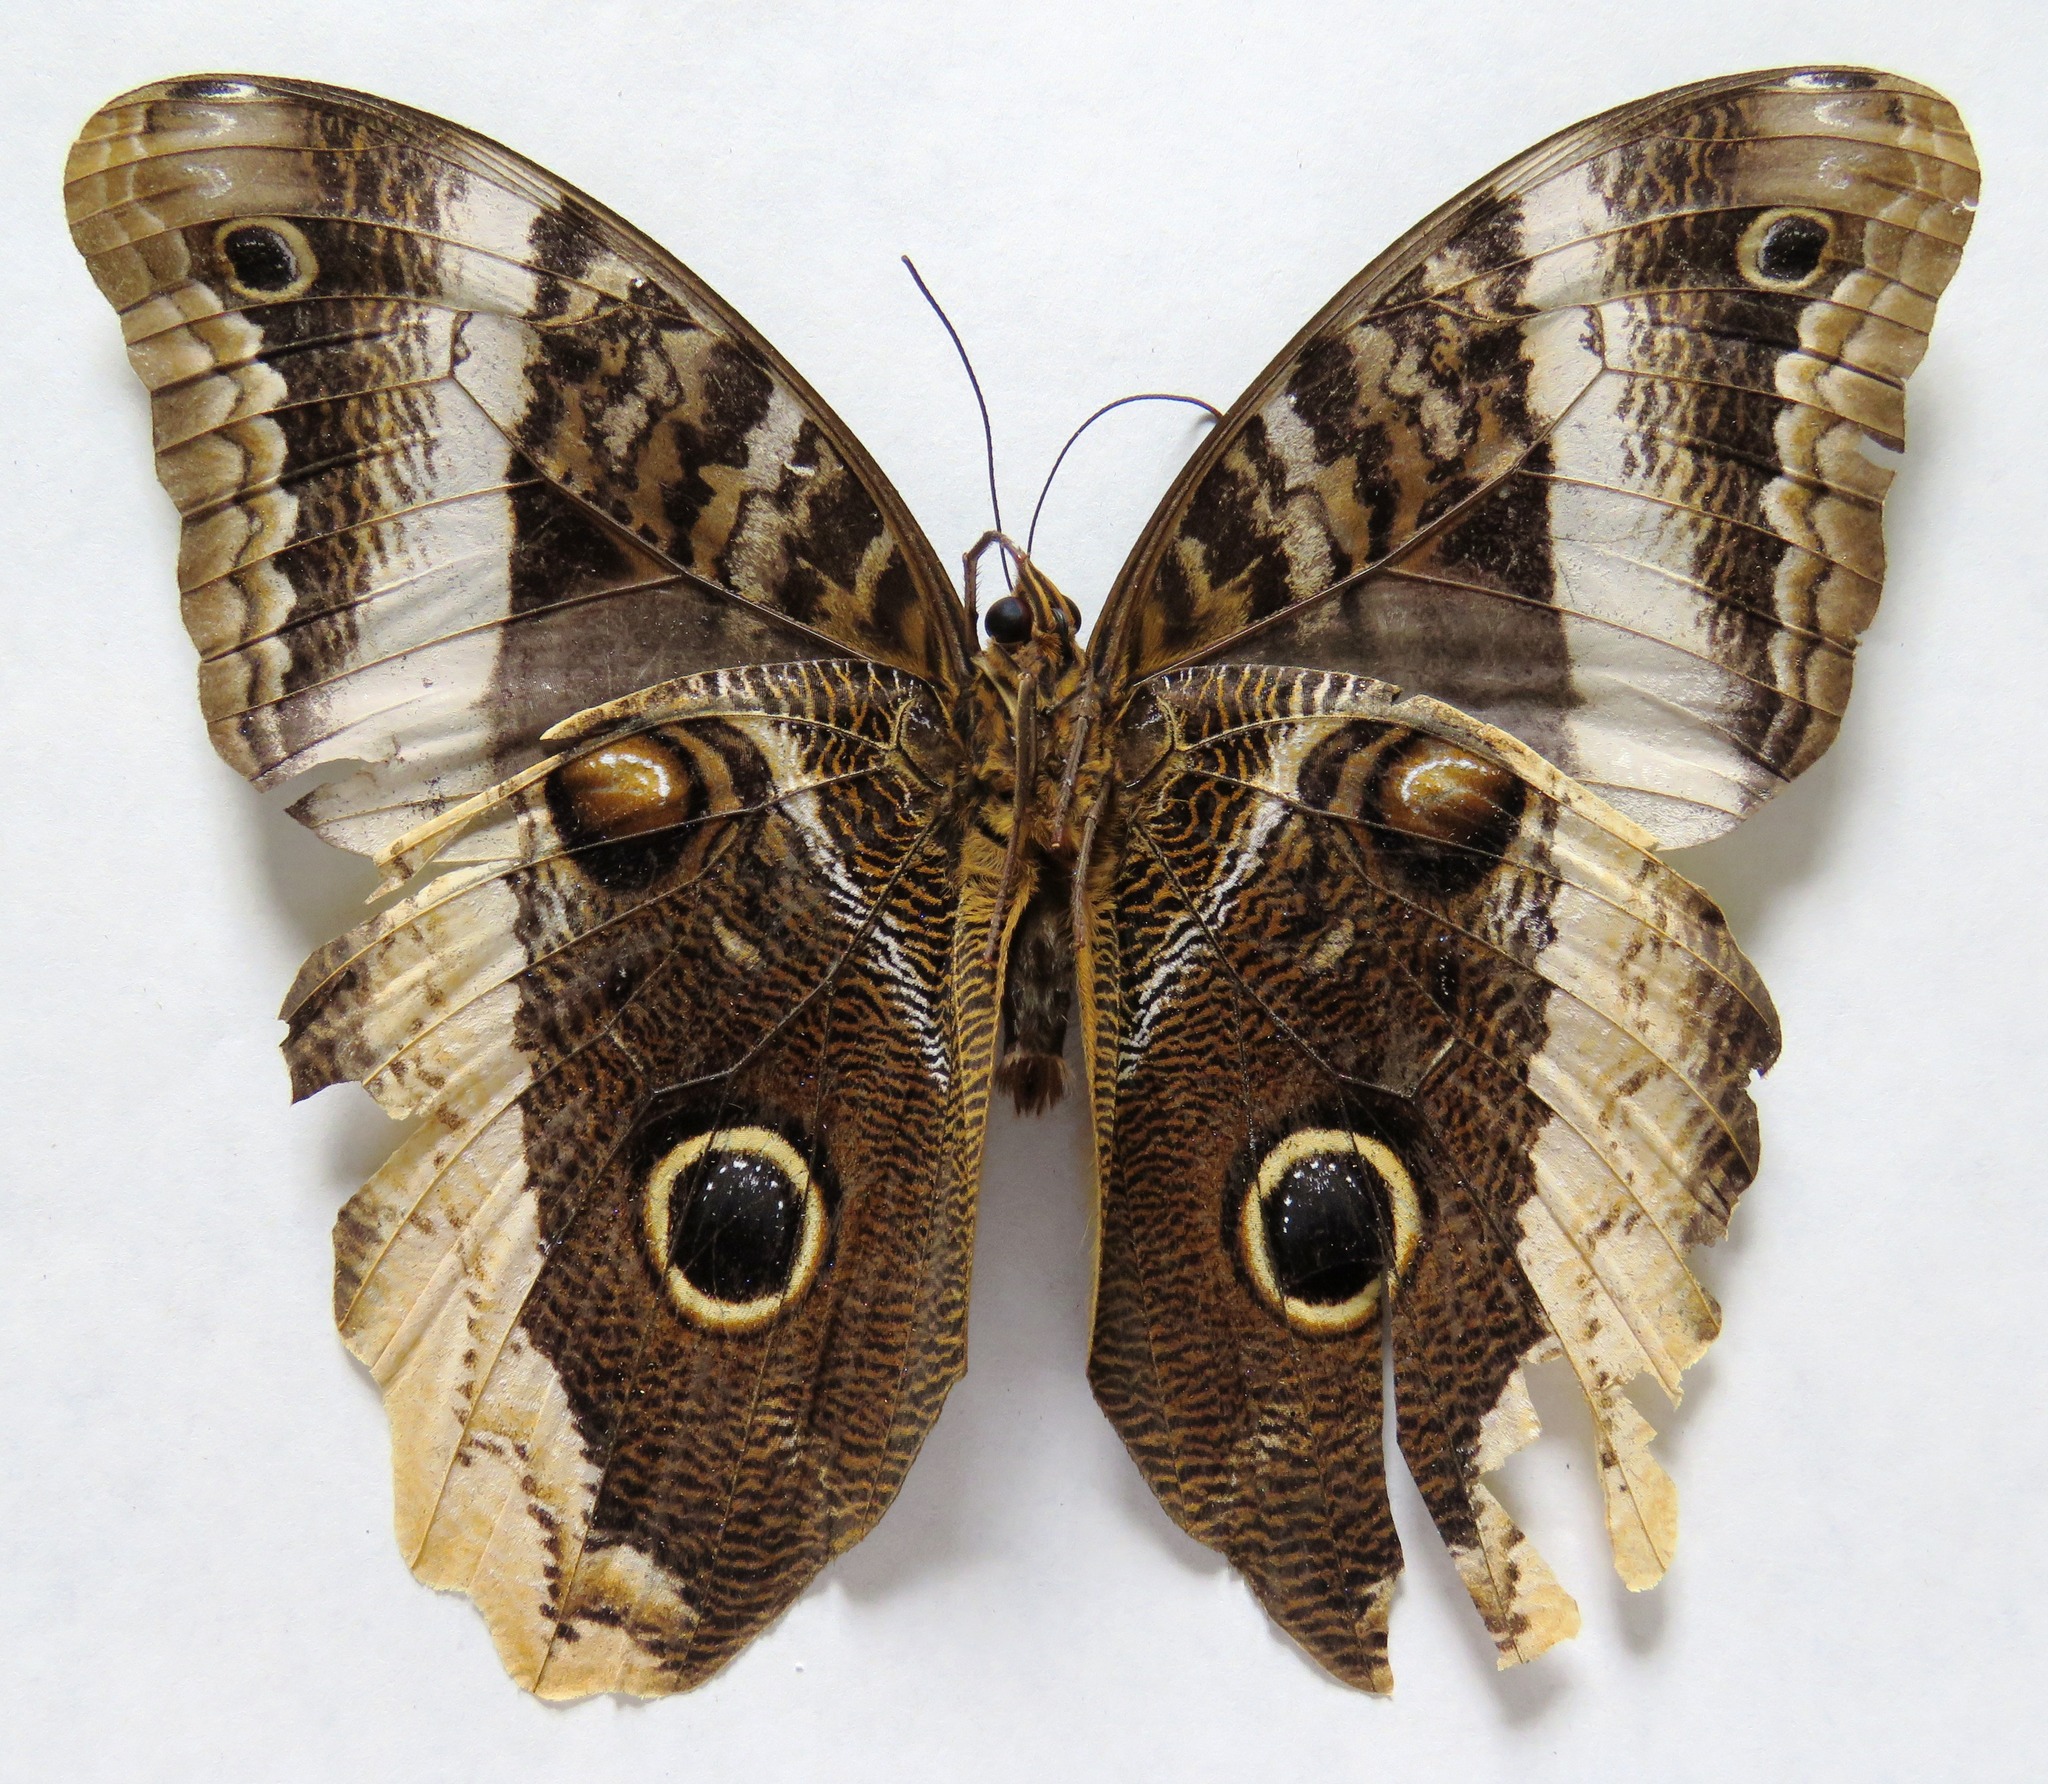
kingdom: Animalia
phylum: Arthropoda
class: Insecta
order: Lepidoptera
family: Nymphalidae
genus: Caligo
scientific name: Caligo atreus
